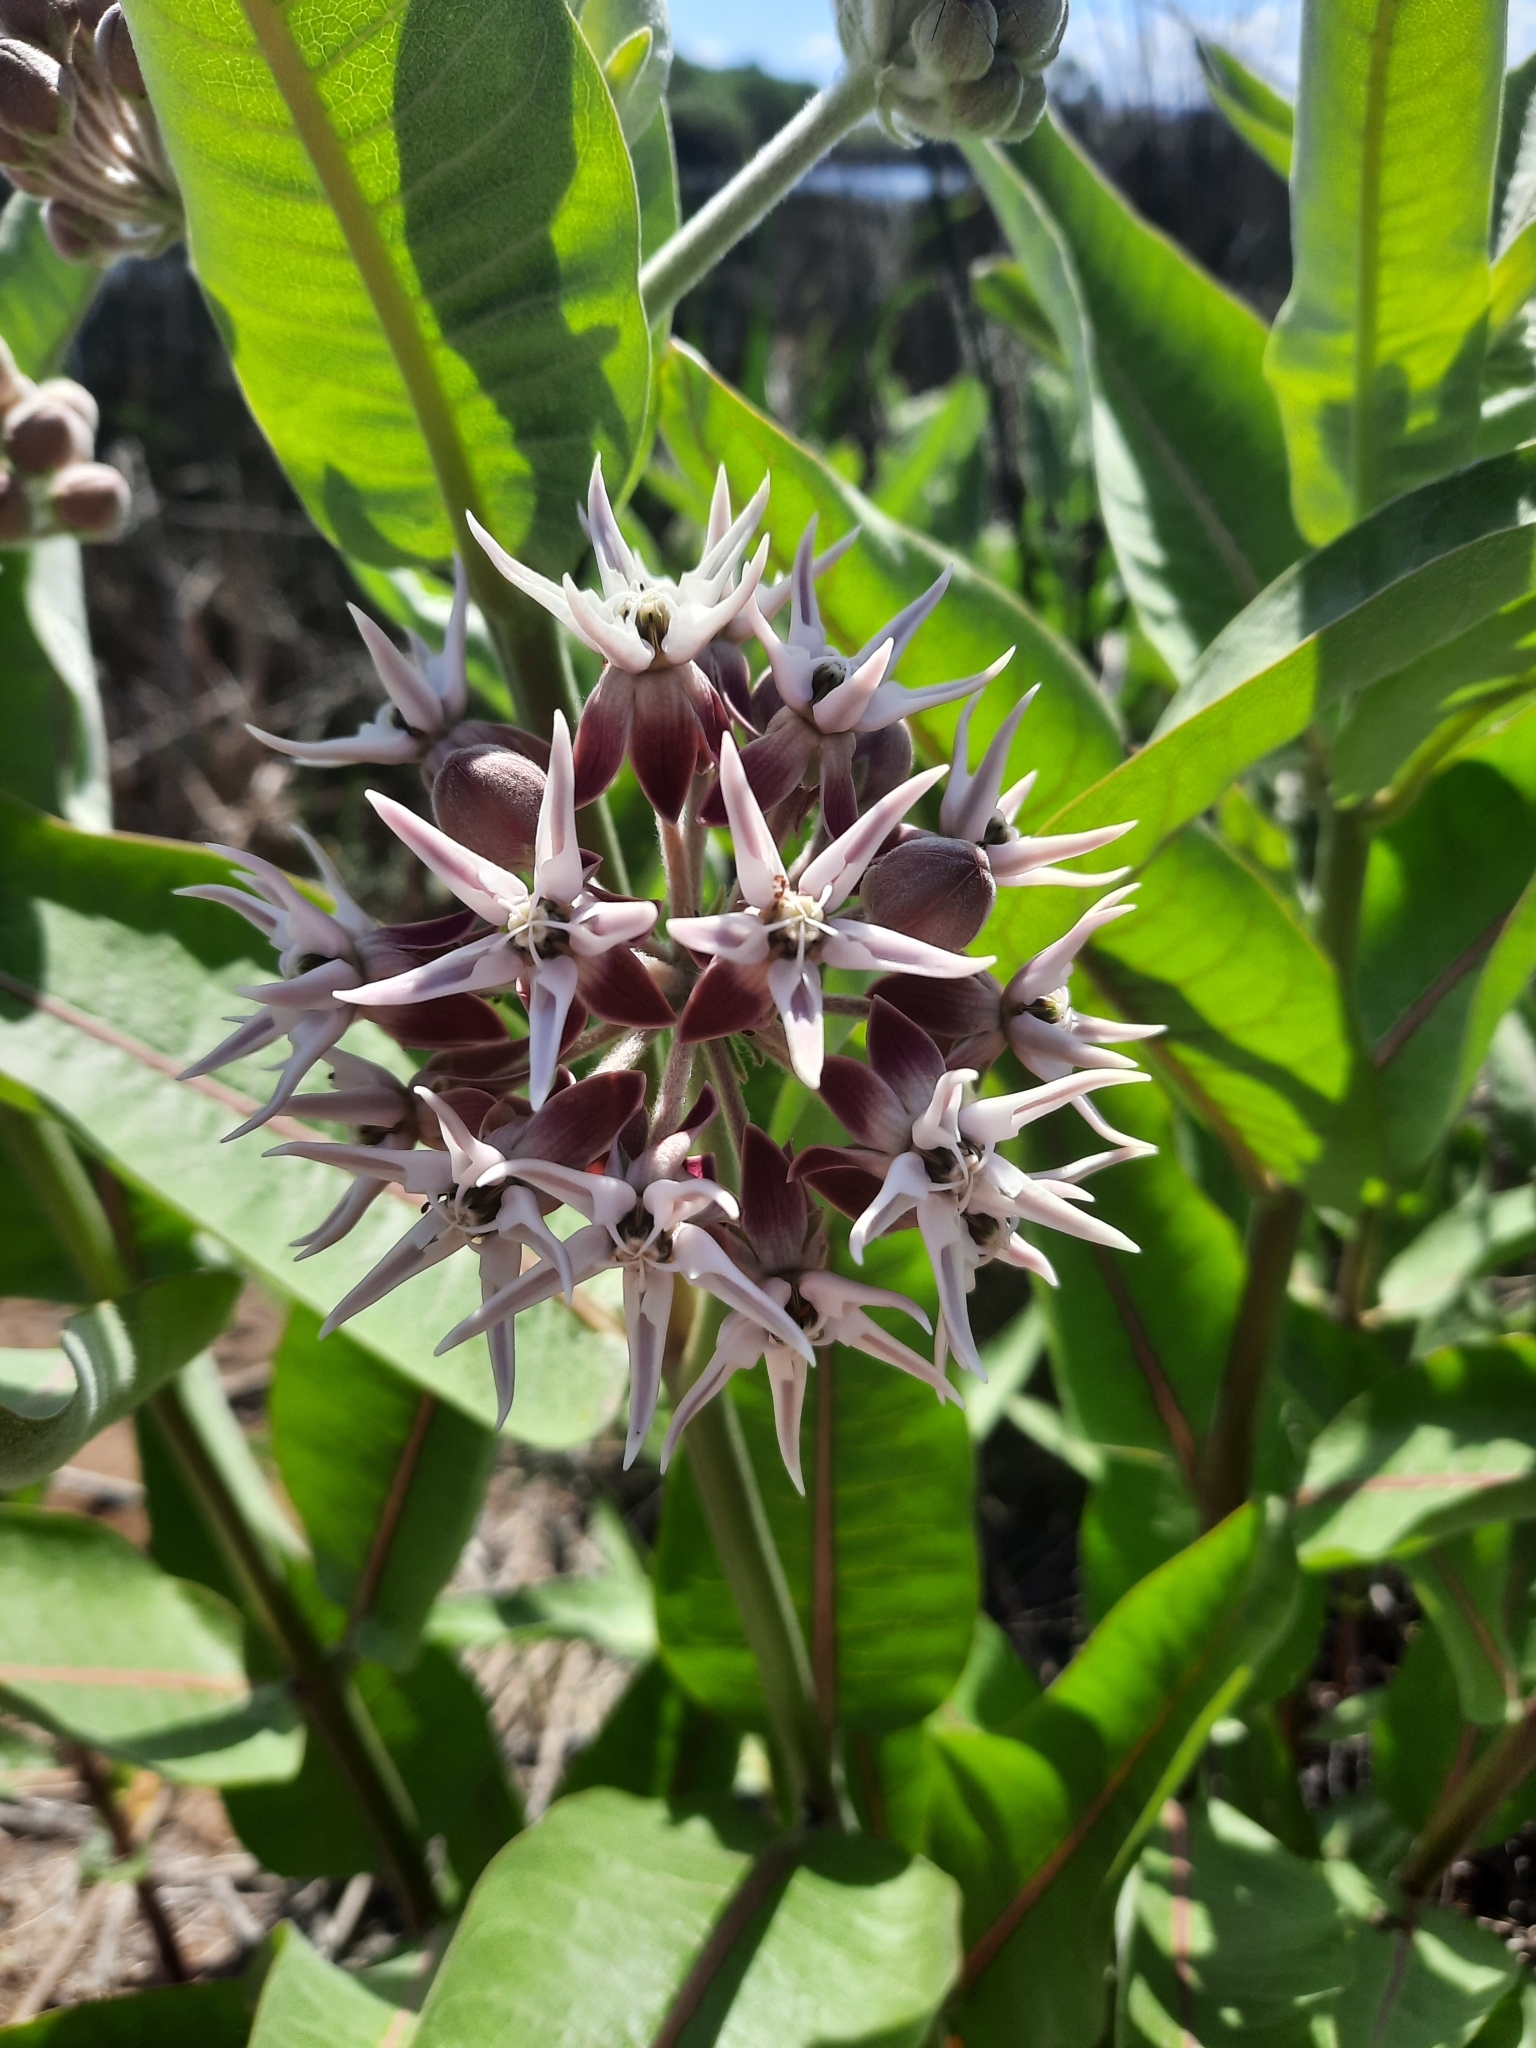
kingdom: Plantae
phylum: Tracheophyta
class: Magnoliopsida
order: Gentianales
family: Apocynaceae
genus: Asclepias
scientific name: Asclepias speciosa
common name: Showy milkweed
